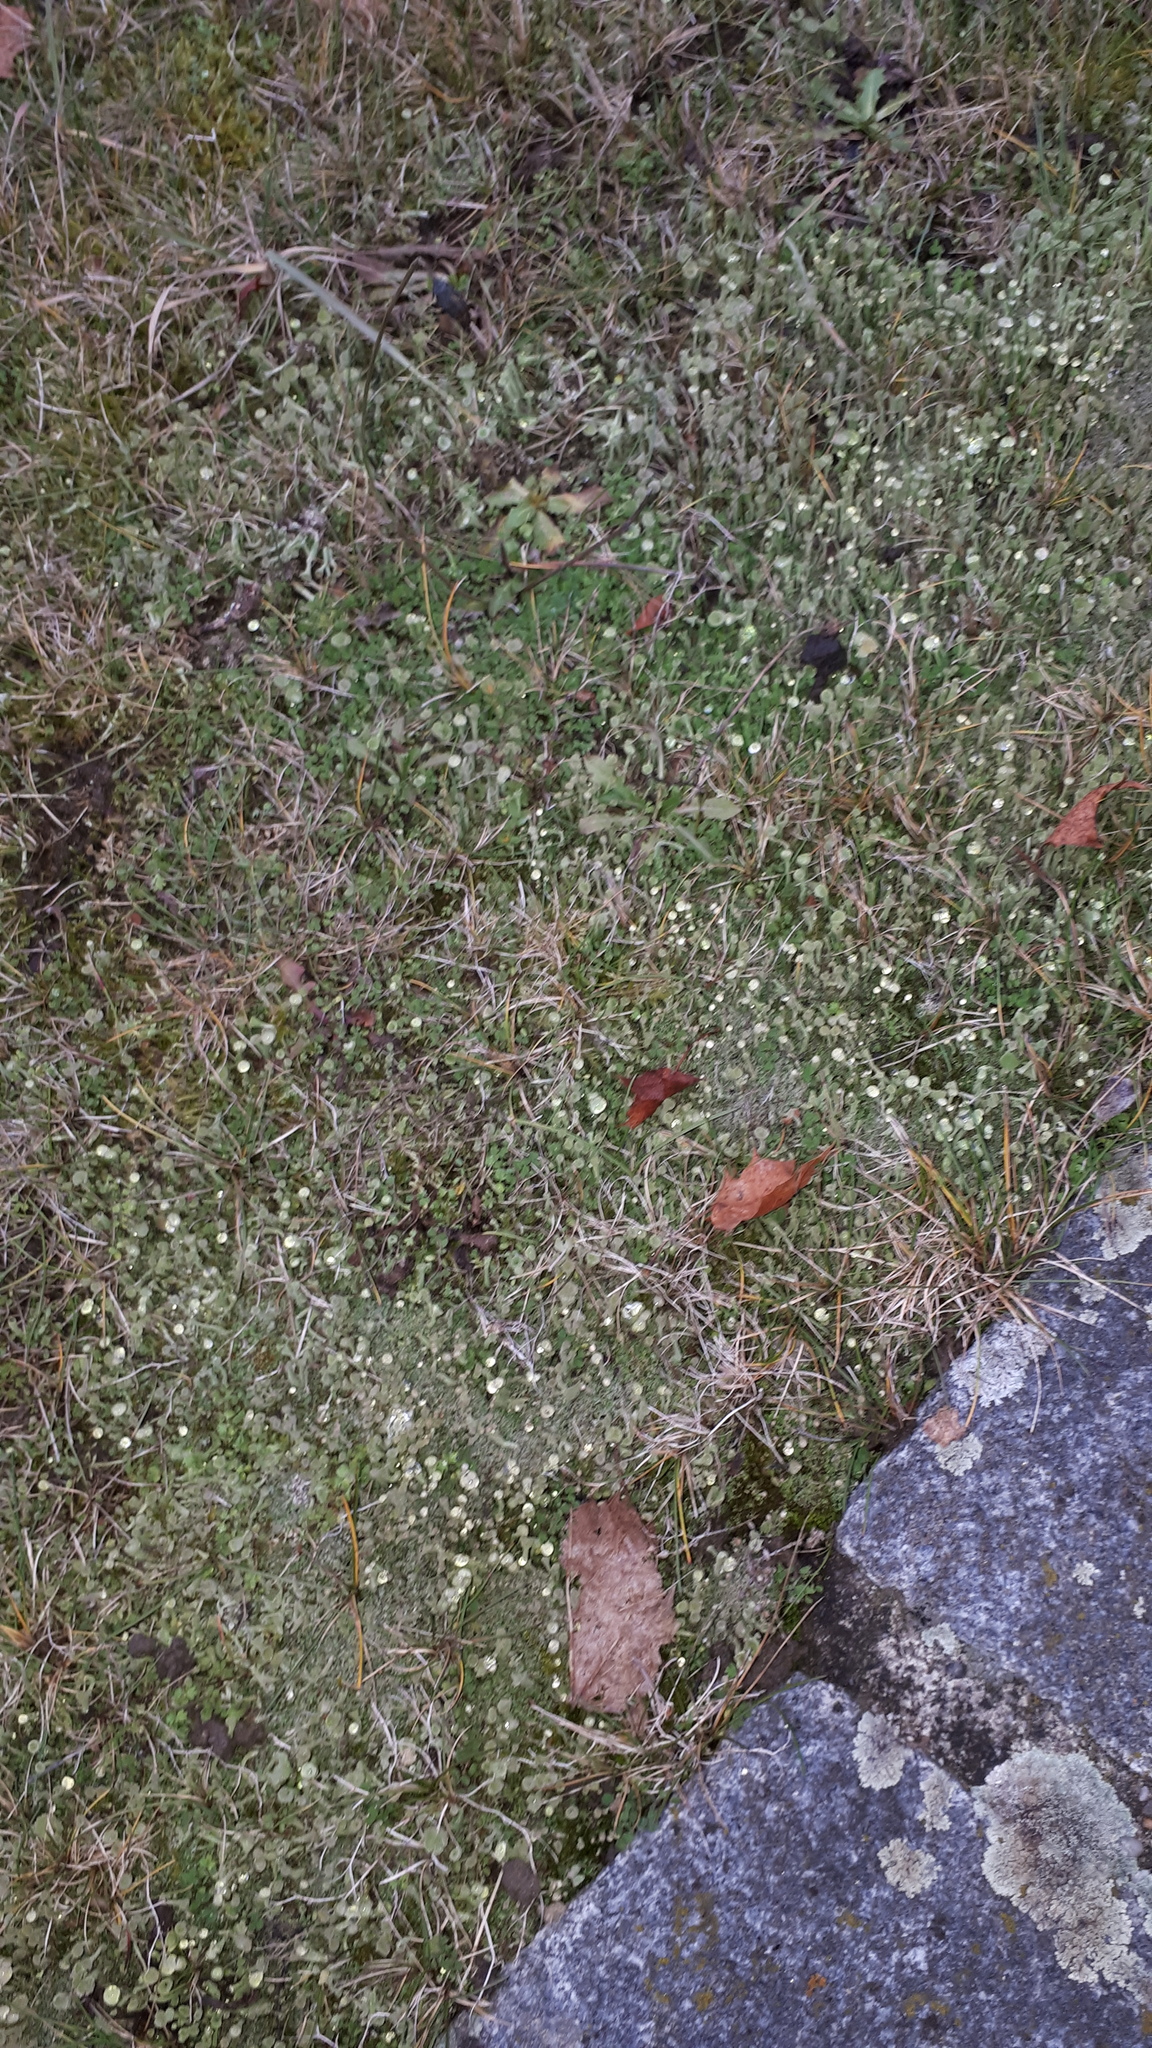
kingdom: Fungi
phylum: Ascomycota
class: Lecanoromycetes
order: Lecanorales
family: Cladoniaceae
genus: Cladonia
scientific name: Cladonia fimbriata
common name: Powdered trumpet lichen
